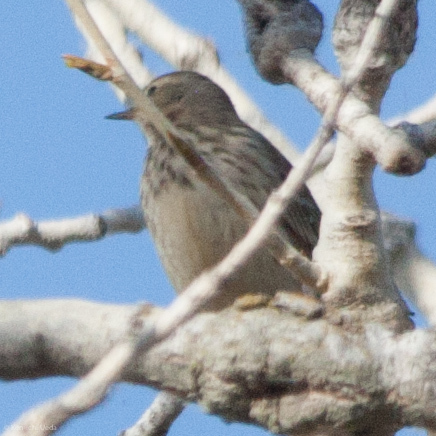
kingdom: Animalia
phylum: Chordata
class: Aves
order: Passeriformes
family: Motacillidae
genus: Anthus
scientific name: Anthus rubescens
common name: Buff-bellied pipit
